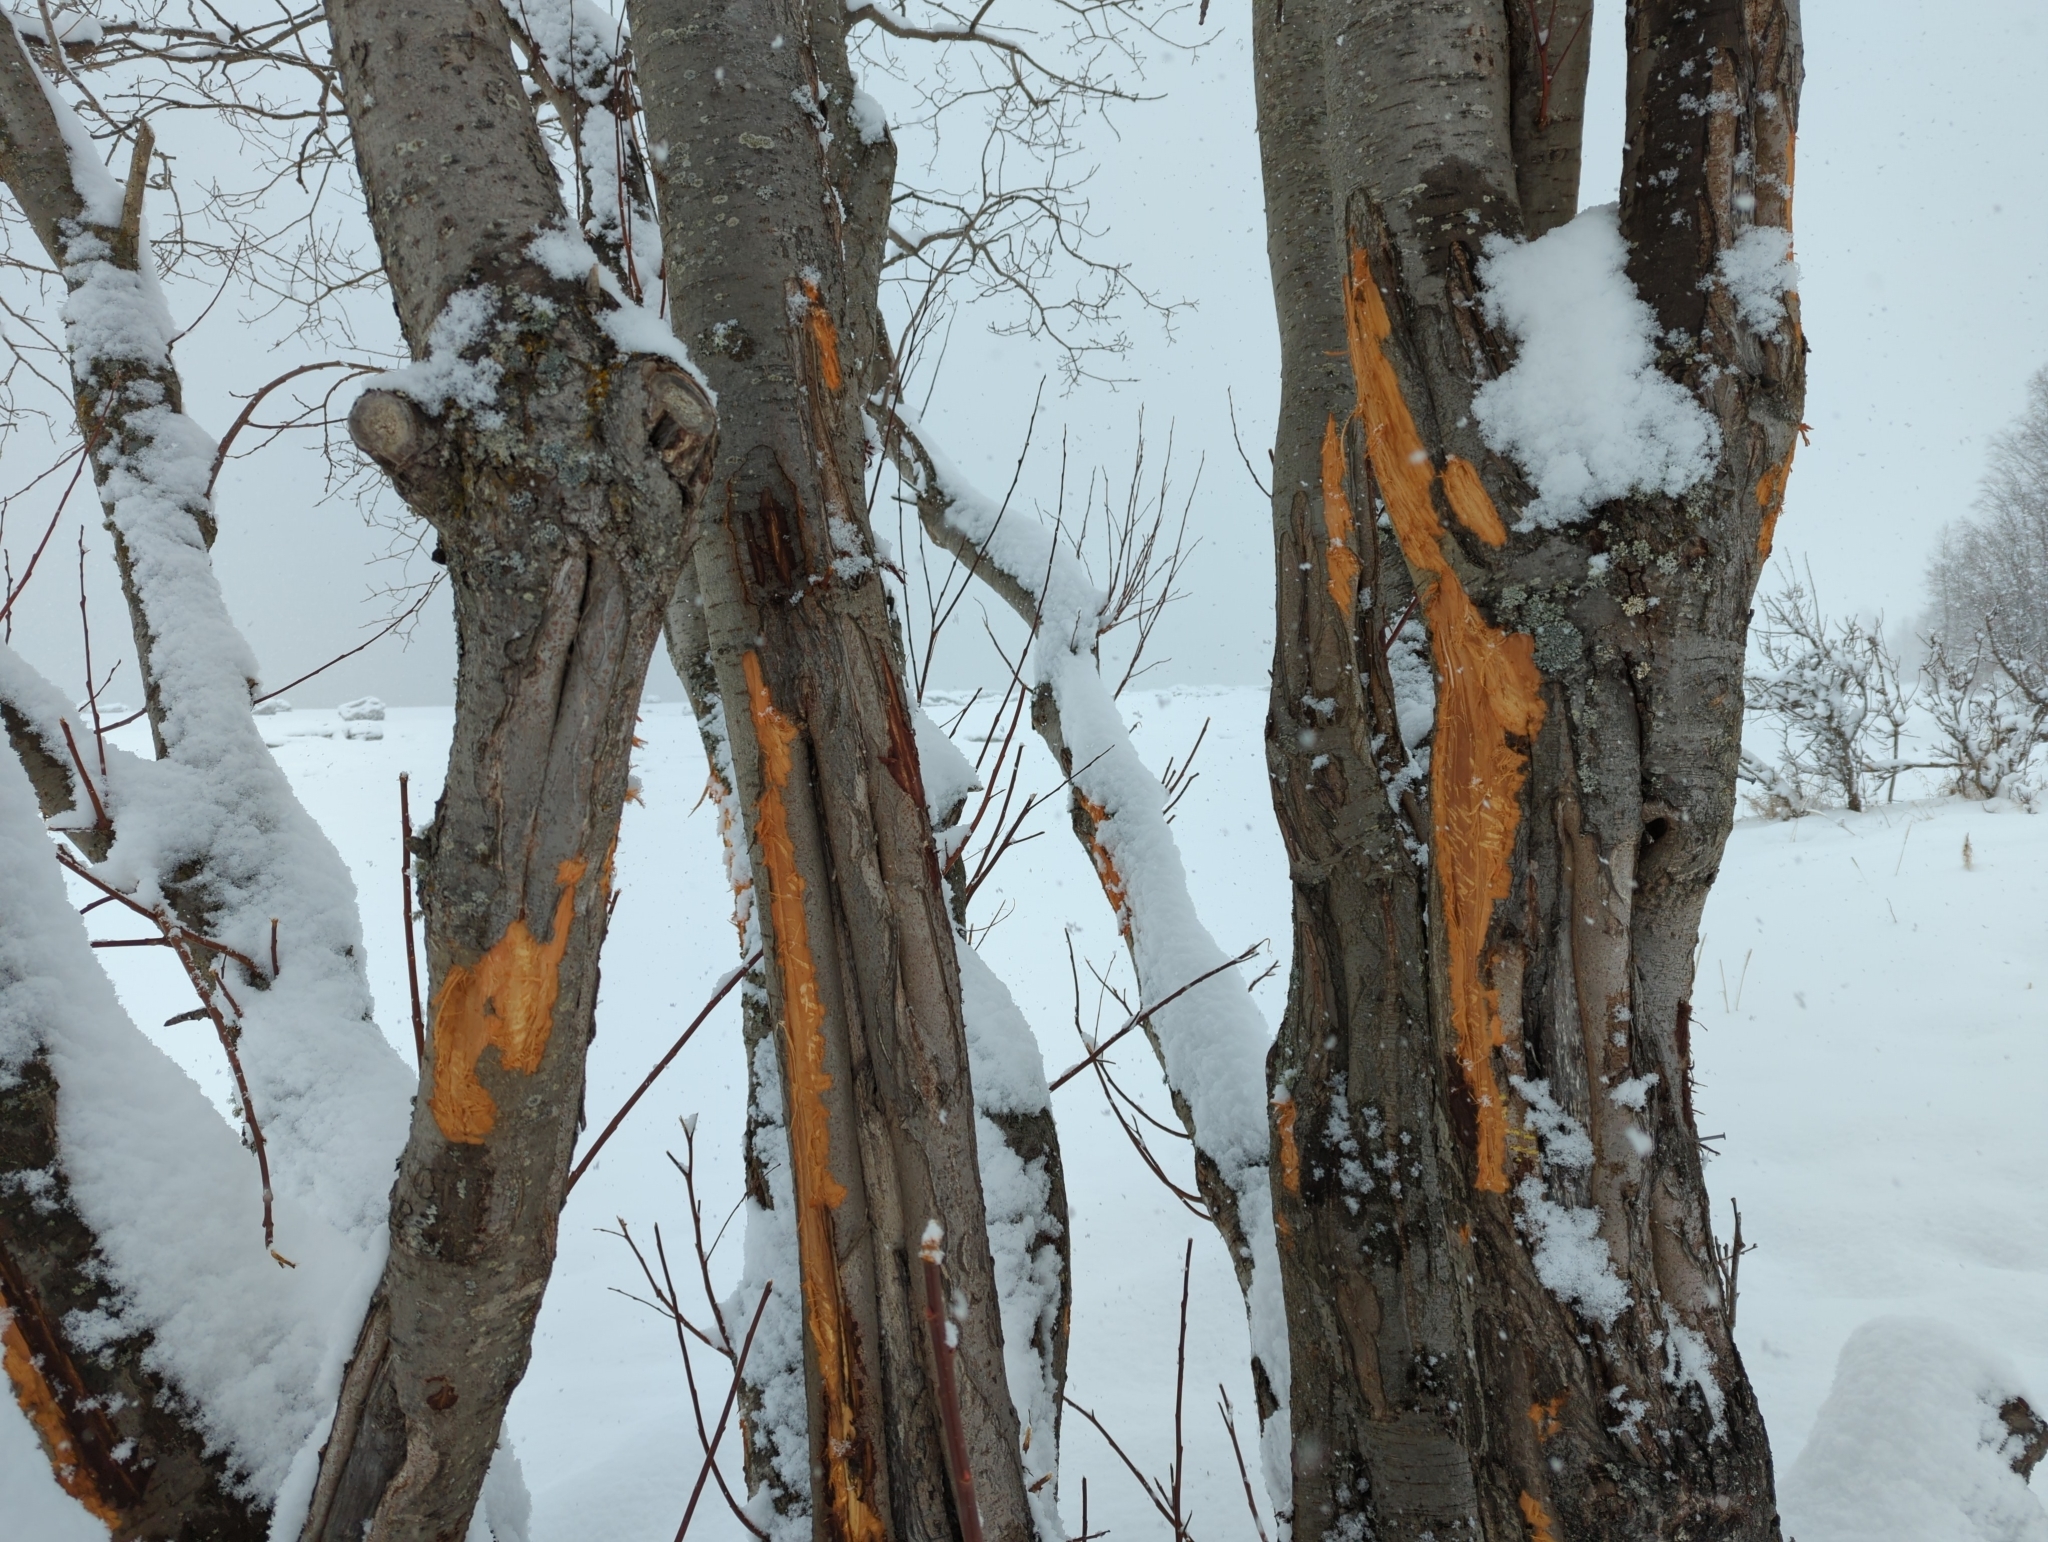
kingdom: Animalia
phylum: Chordata
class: Mammalia
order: Artiodactyla
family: Cervidae
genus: Alces
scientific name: Alces alces
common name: Moose
